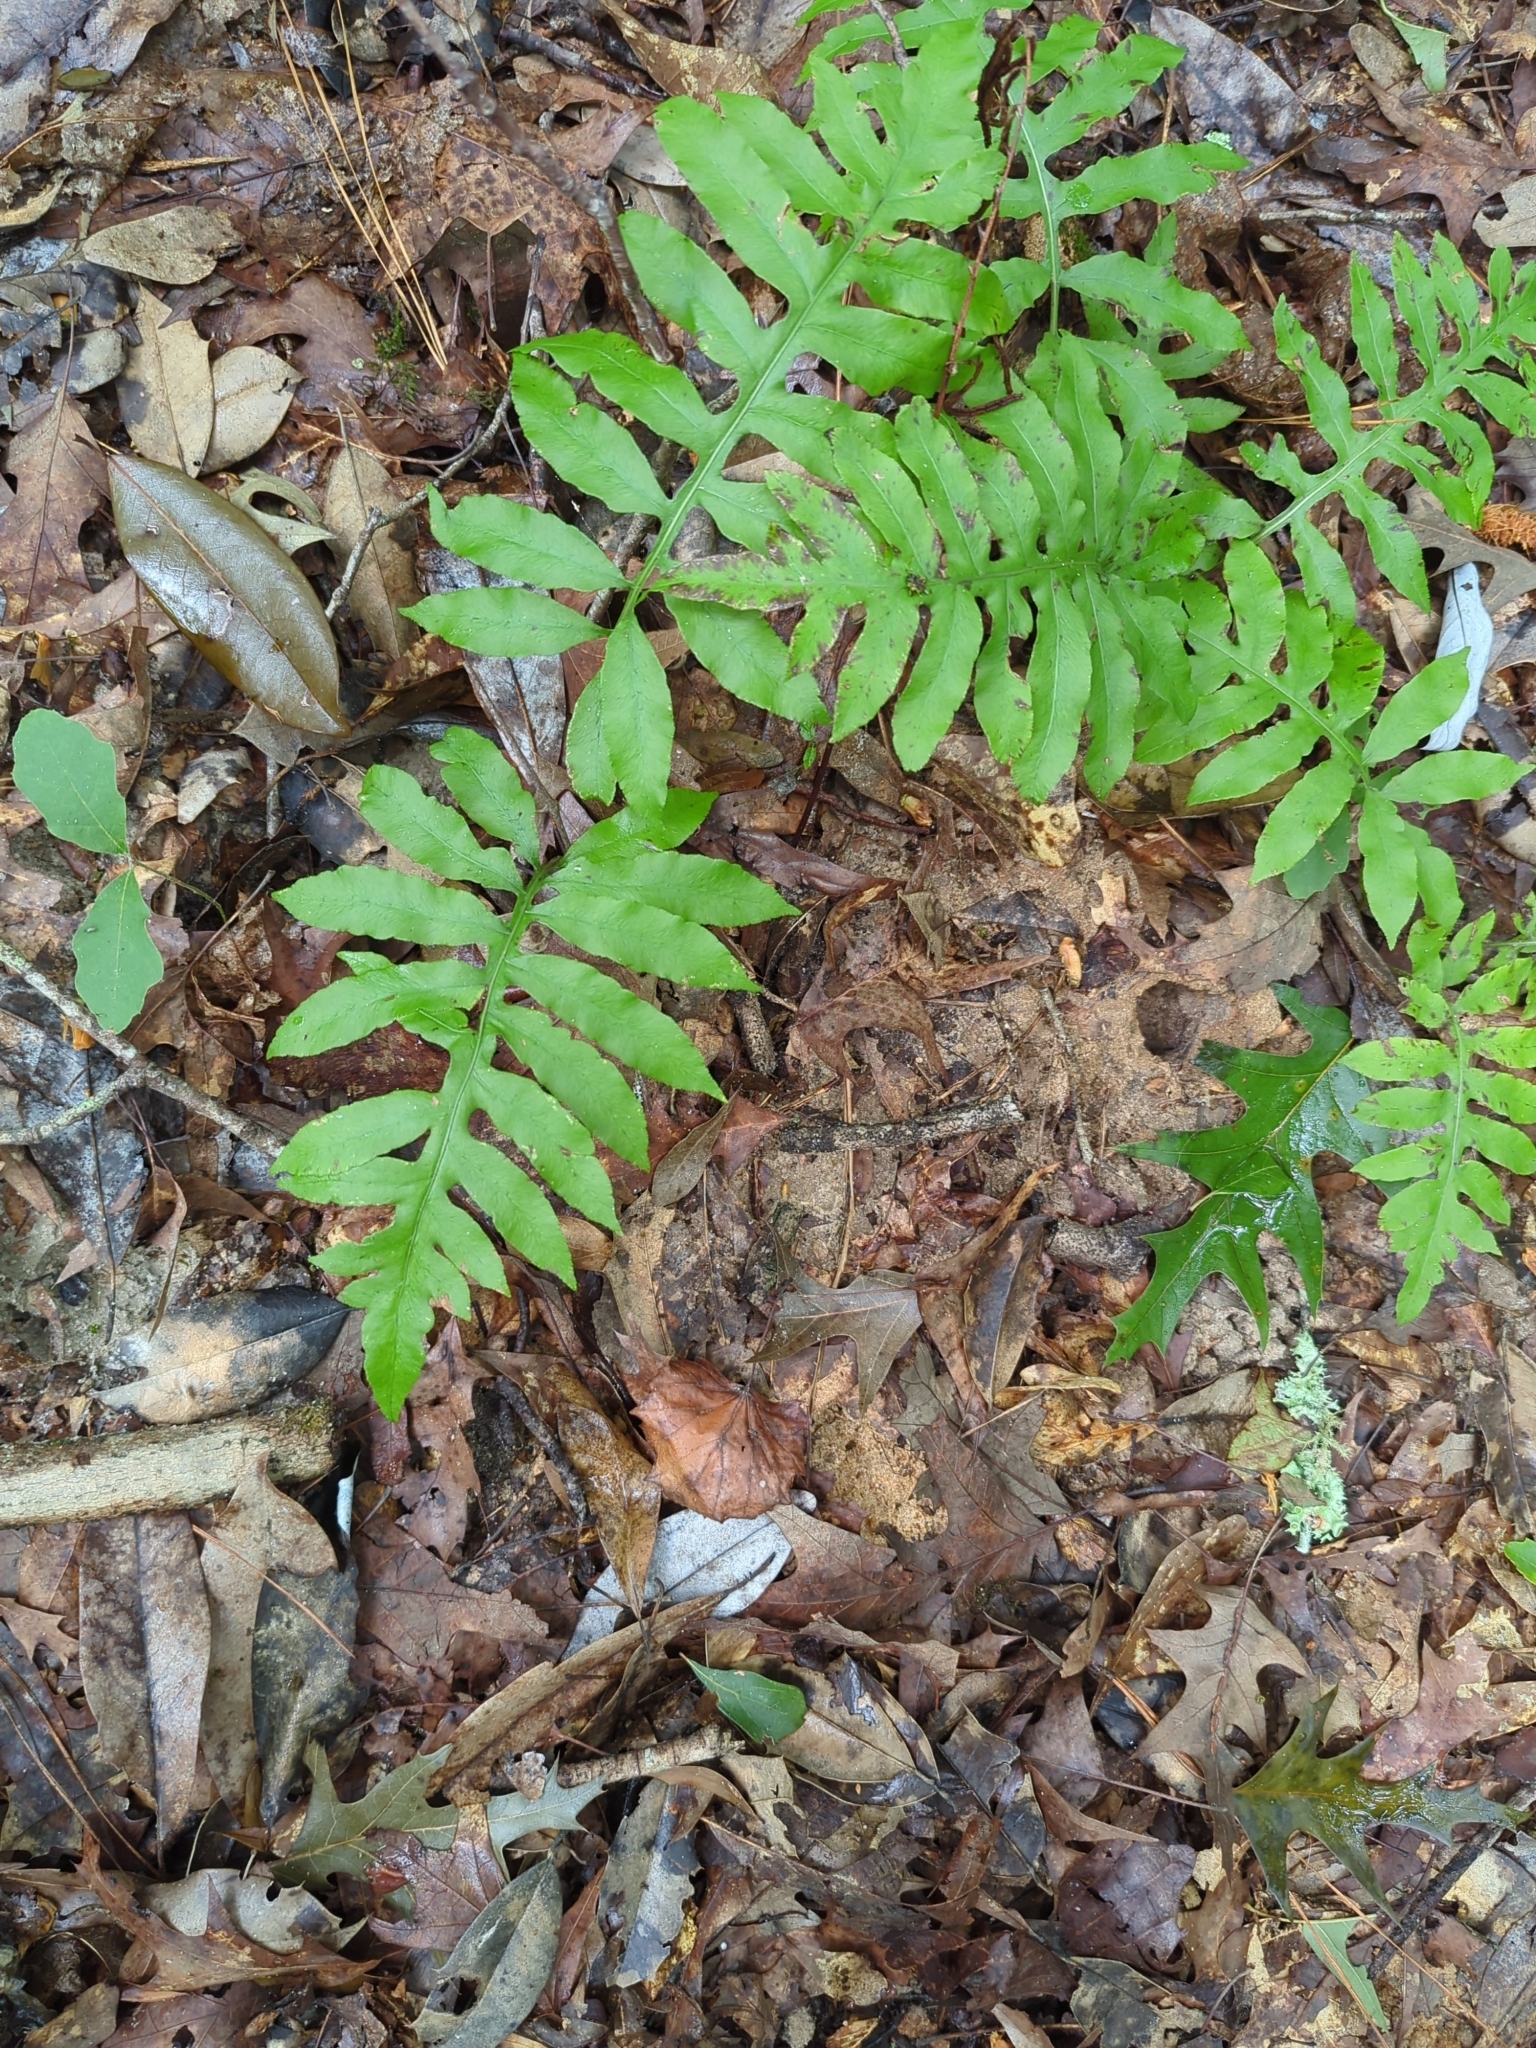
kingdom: Plantae
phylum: Tracheophyta
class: Polypodiopsida
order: Polypodiales
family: Blechnaceae
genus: Lorinseria
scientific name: Lorinseria areolata
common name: Dwarf chain fern
